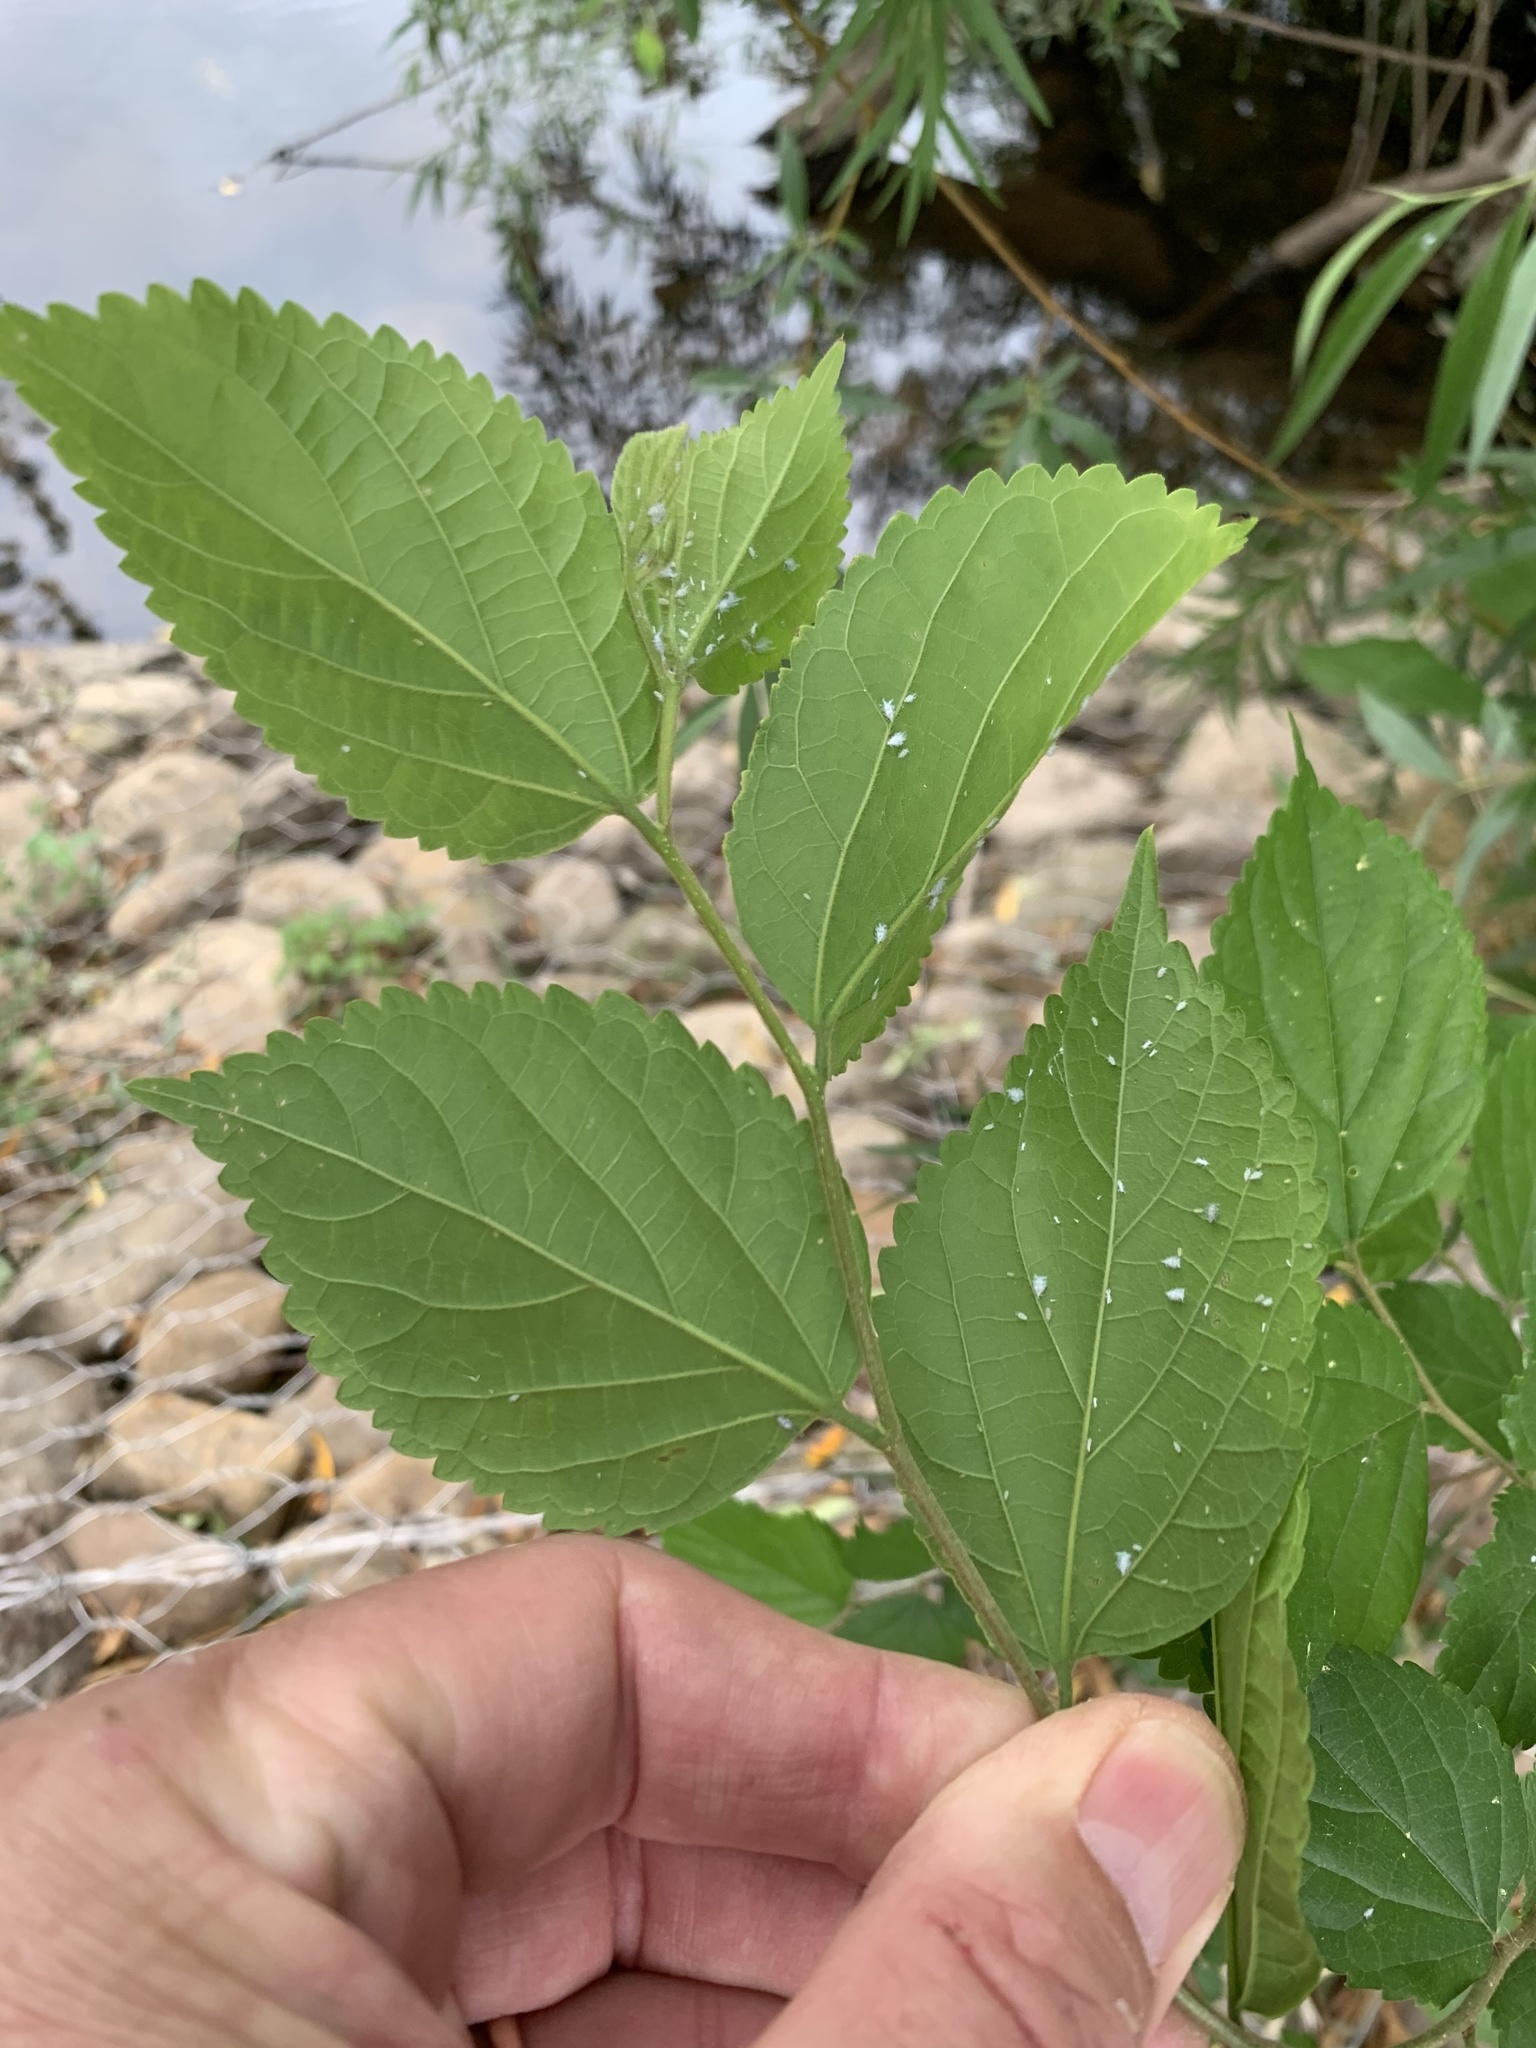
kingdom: Plantae
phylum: Tracheophyta
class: Magnoliopsida
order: Rosales
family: Cannabaceae
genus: Celtis
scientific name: Celtis sinensis
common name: Chinese hackberry
